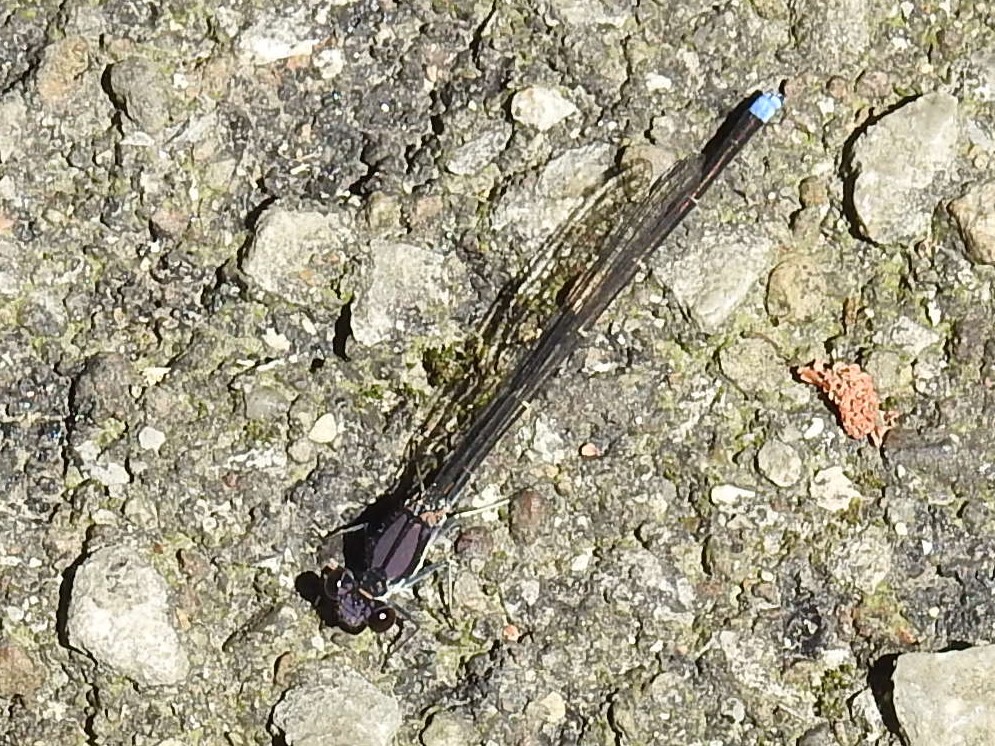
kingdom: Animalia
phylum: Arthropoda
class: Insecta
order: Odonata
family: Coenagrionidae
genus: Argia
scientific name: Argia tibialis
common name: Blue-tipped dancer
